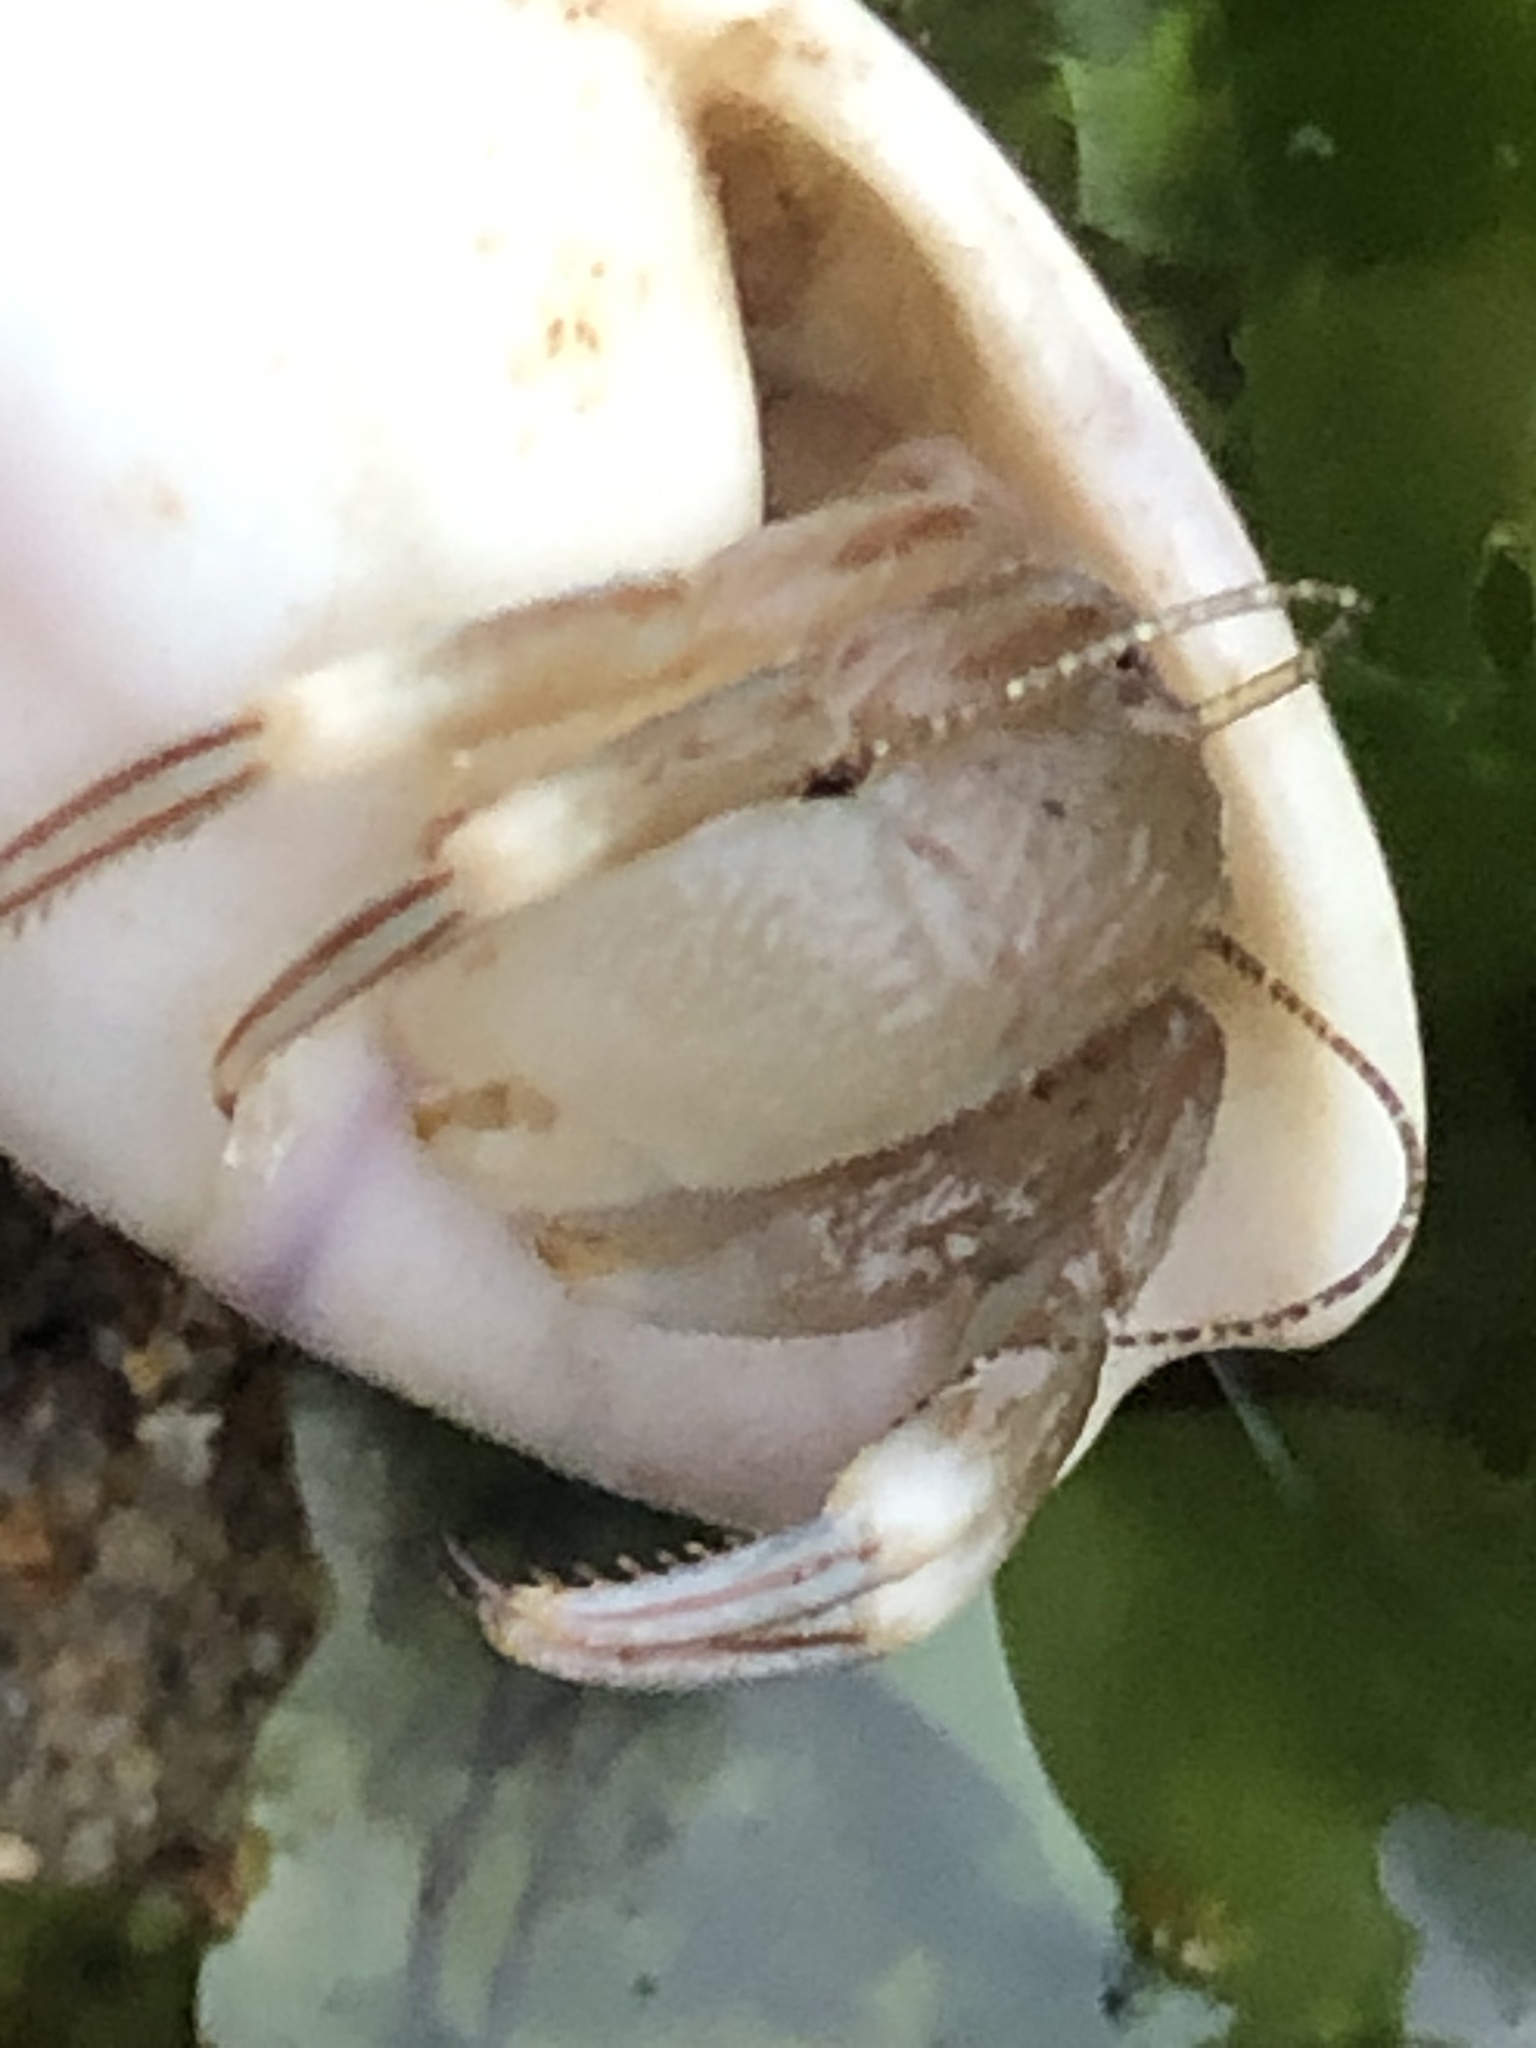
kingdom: Animalia
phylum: Arthropoda
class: Malacostraca
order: Decapoda
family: Paguridae
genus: Pagurus
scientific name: Pagurus venturensis
